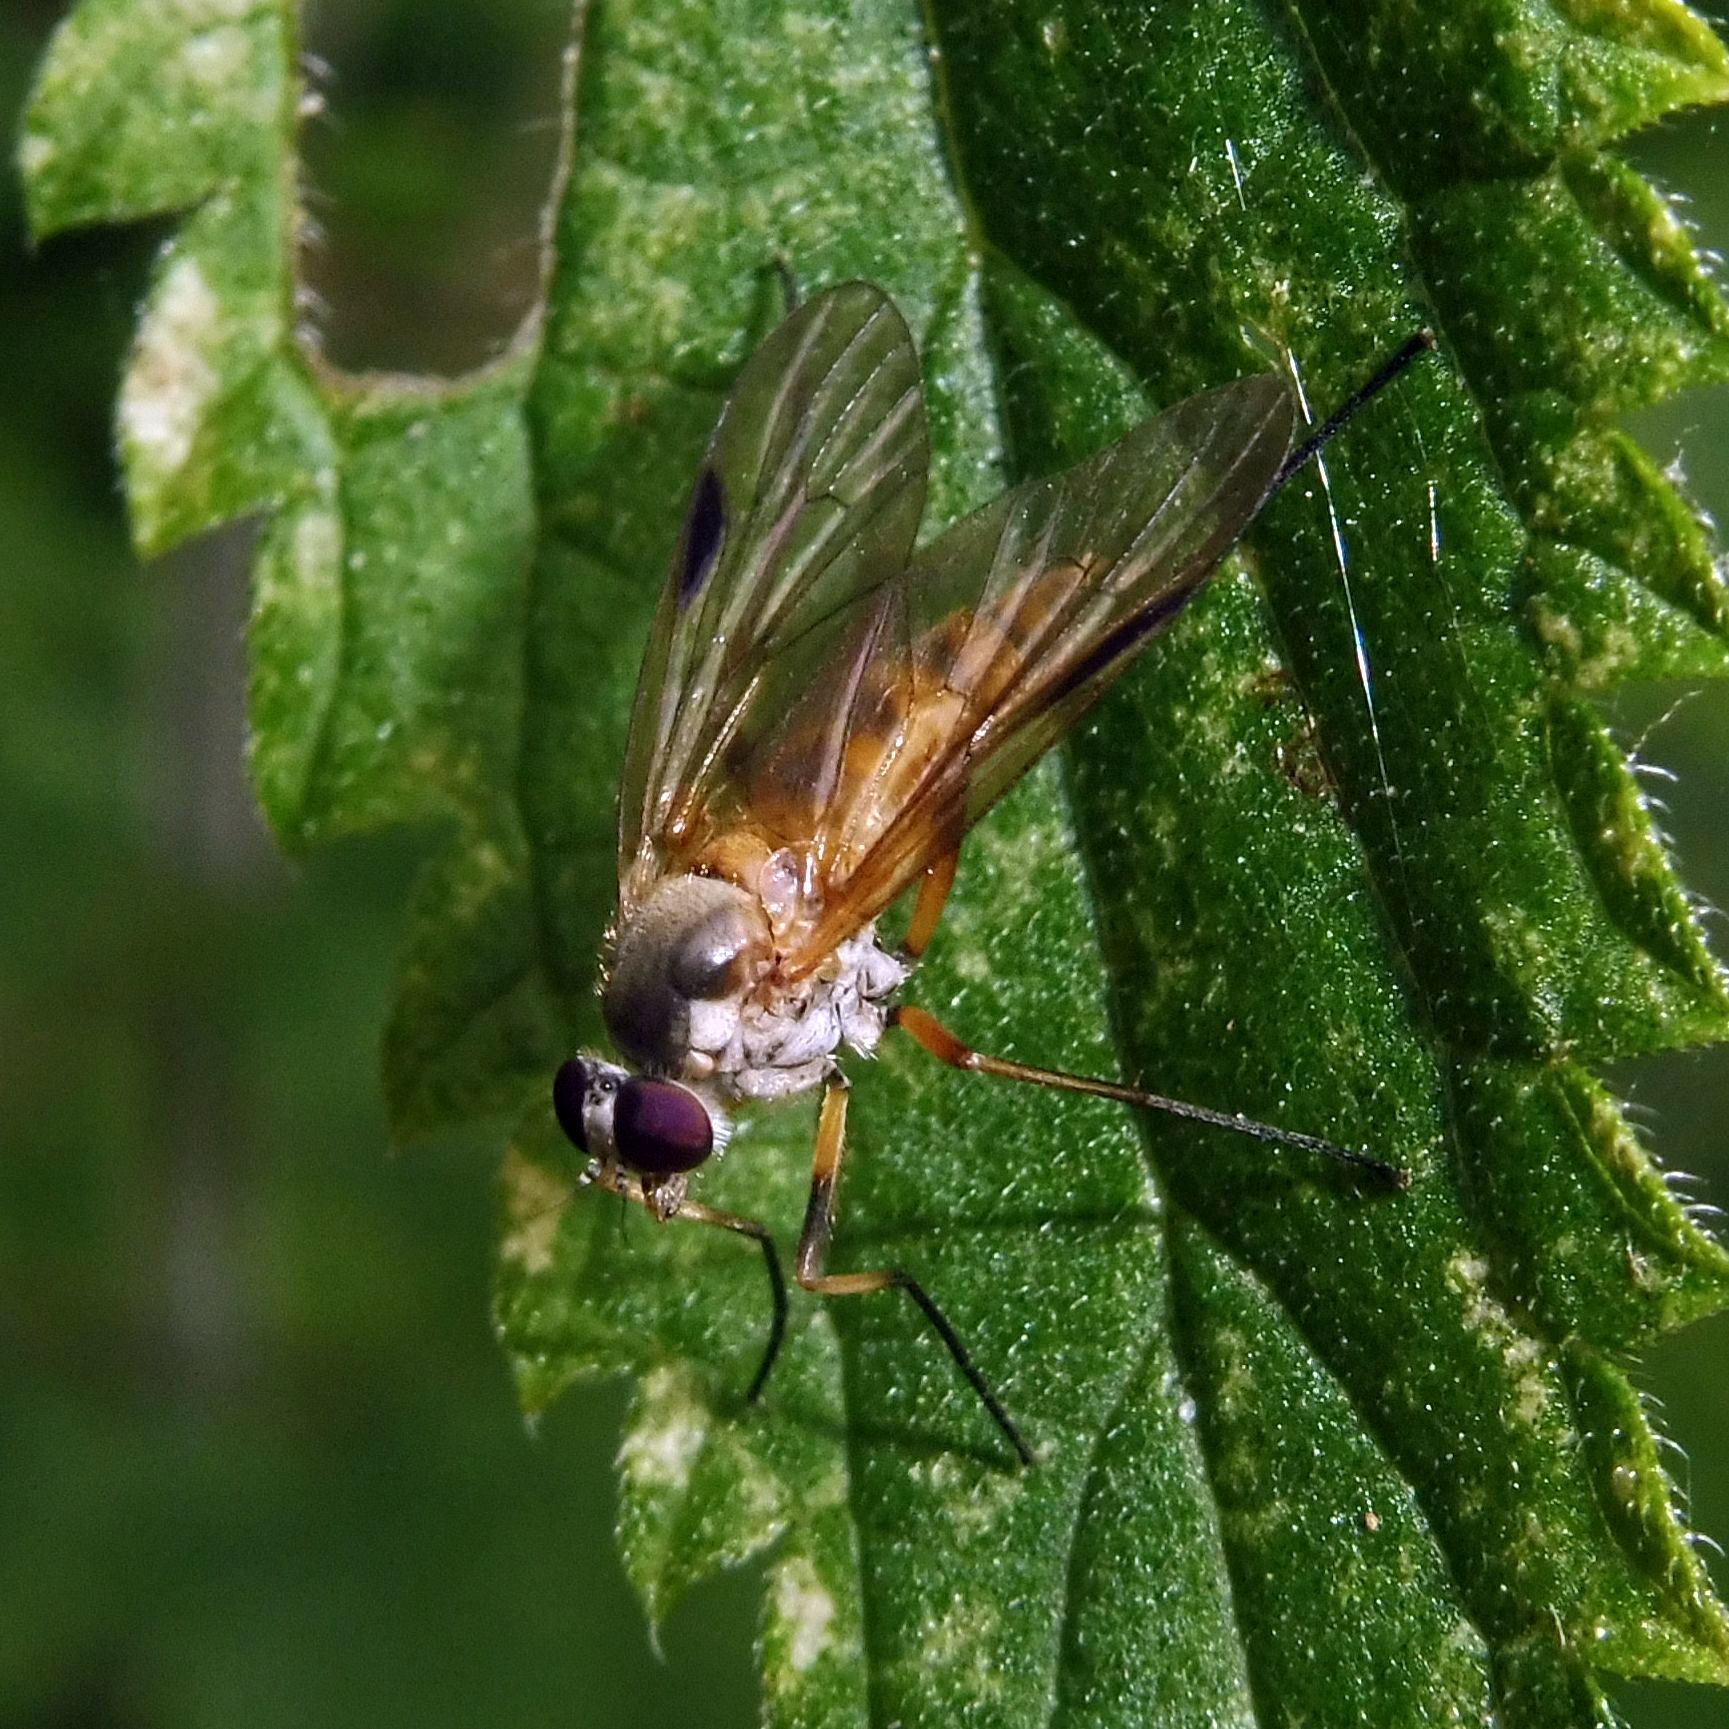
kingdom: Animalia
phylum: Arthropoda
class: Insecta
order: Diptera
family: Rhagionidae
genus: Rhagio
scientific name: Rhagio lineola
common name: Small fleck-winged snipefly
